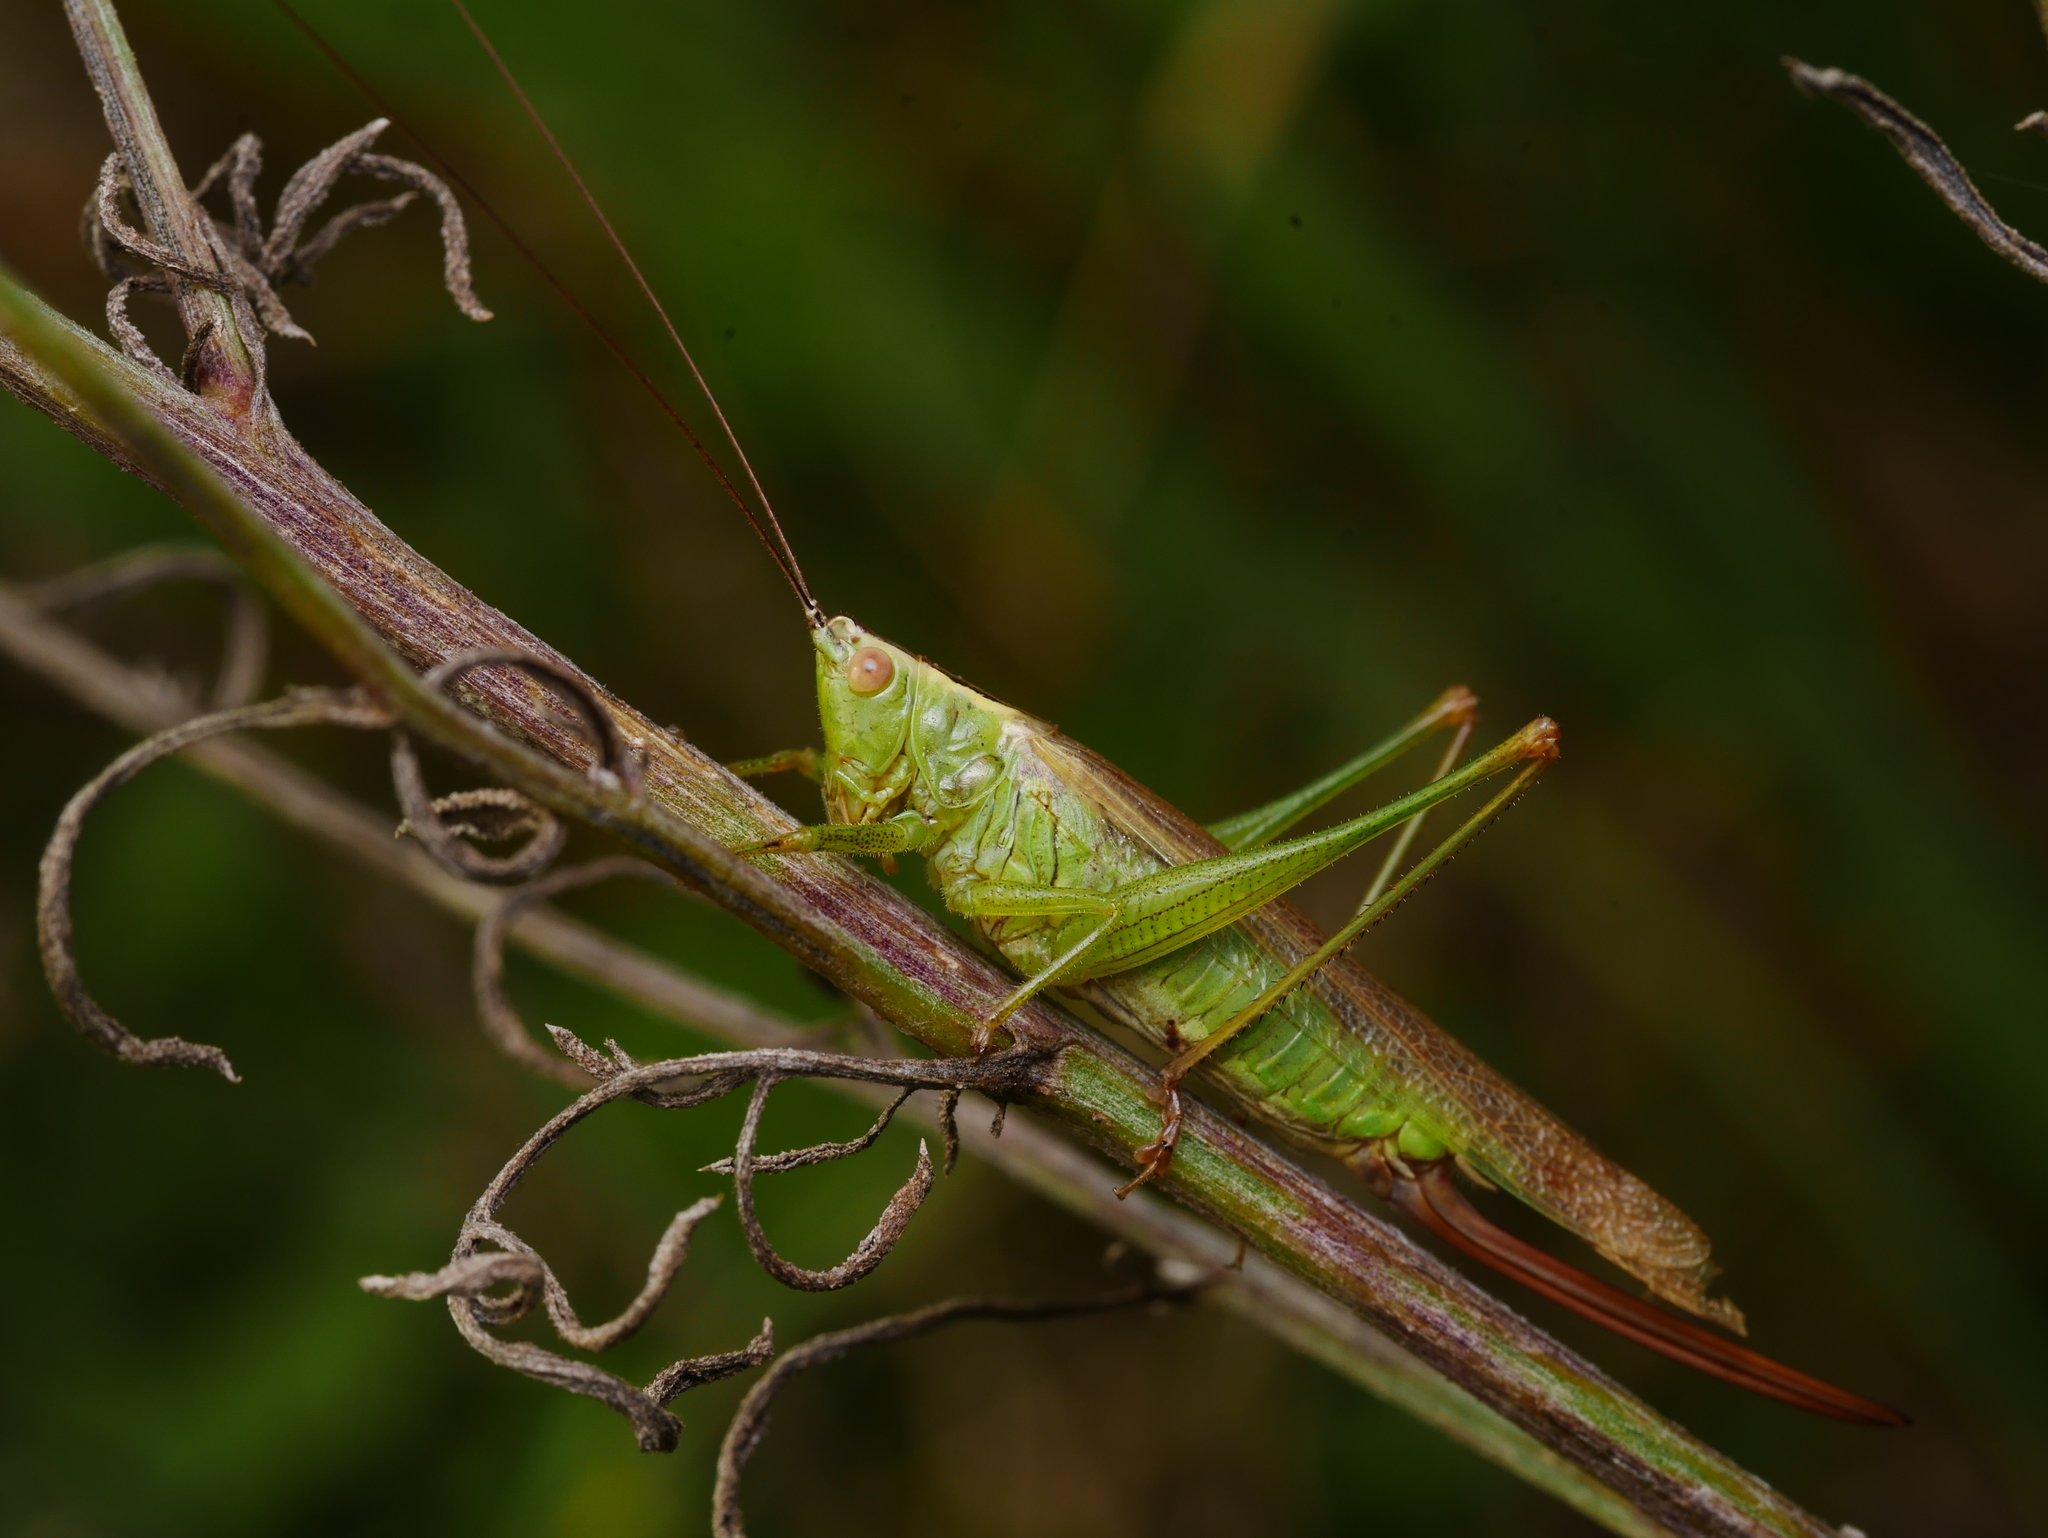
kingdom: Animalia
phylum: Arthropoda
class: Insecta
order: Orthoptera
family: Tettigoniidae
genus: Conocephalus
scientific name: Conocephalus fuscus
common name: Long-winged conehead
